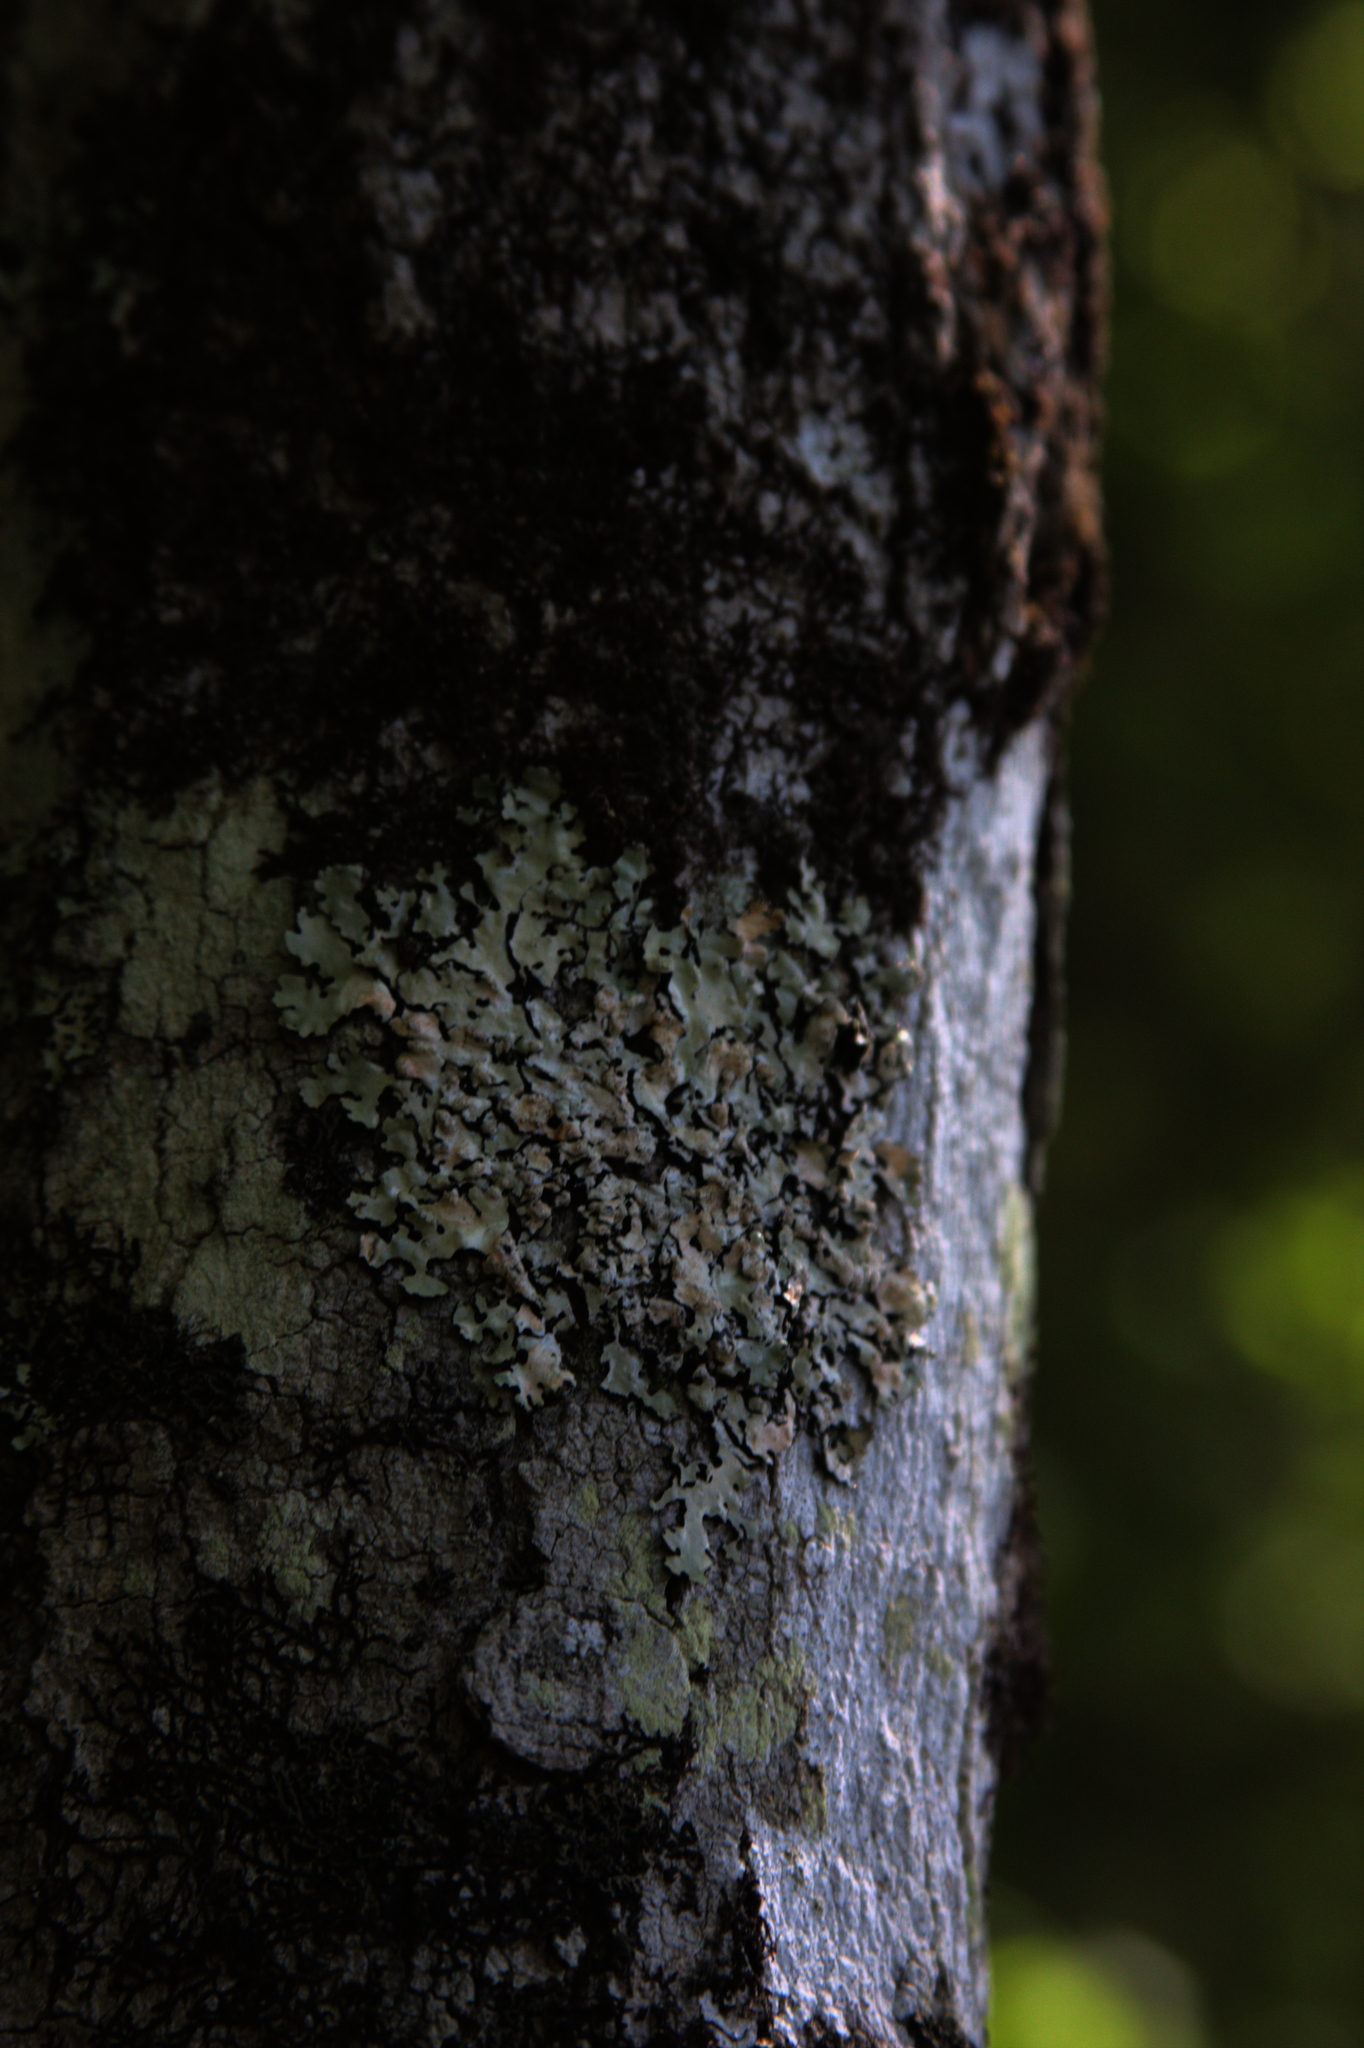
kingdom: Plantae
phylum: Marchantiophyta
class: Jungermanniopsida
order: Porellales
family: Frullaniaceae
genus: Frullania
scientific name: Frullania eboracensis
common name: New york scalewort
